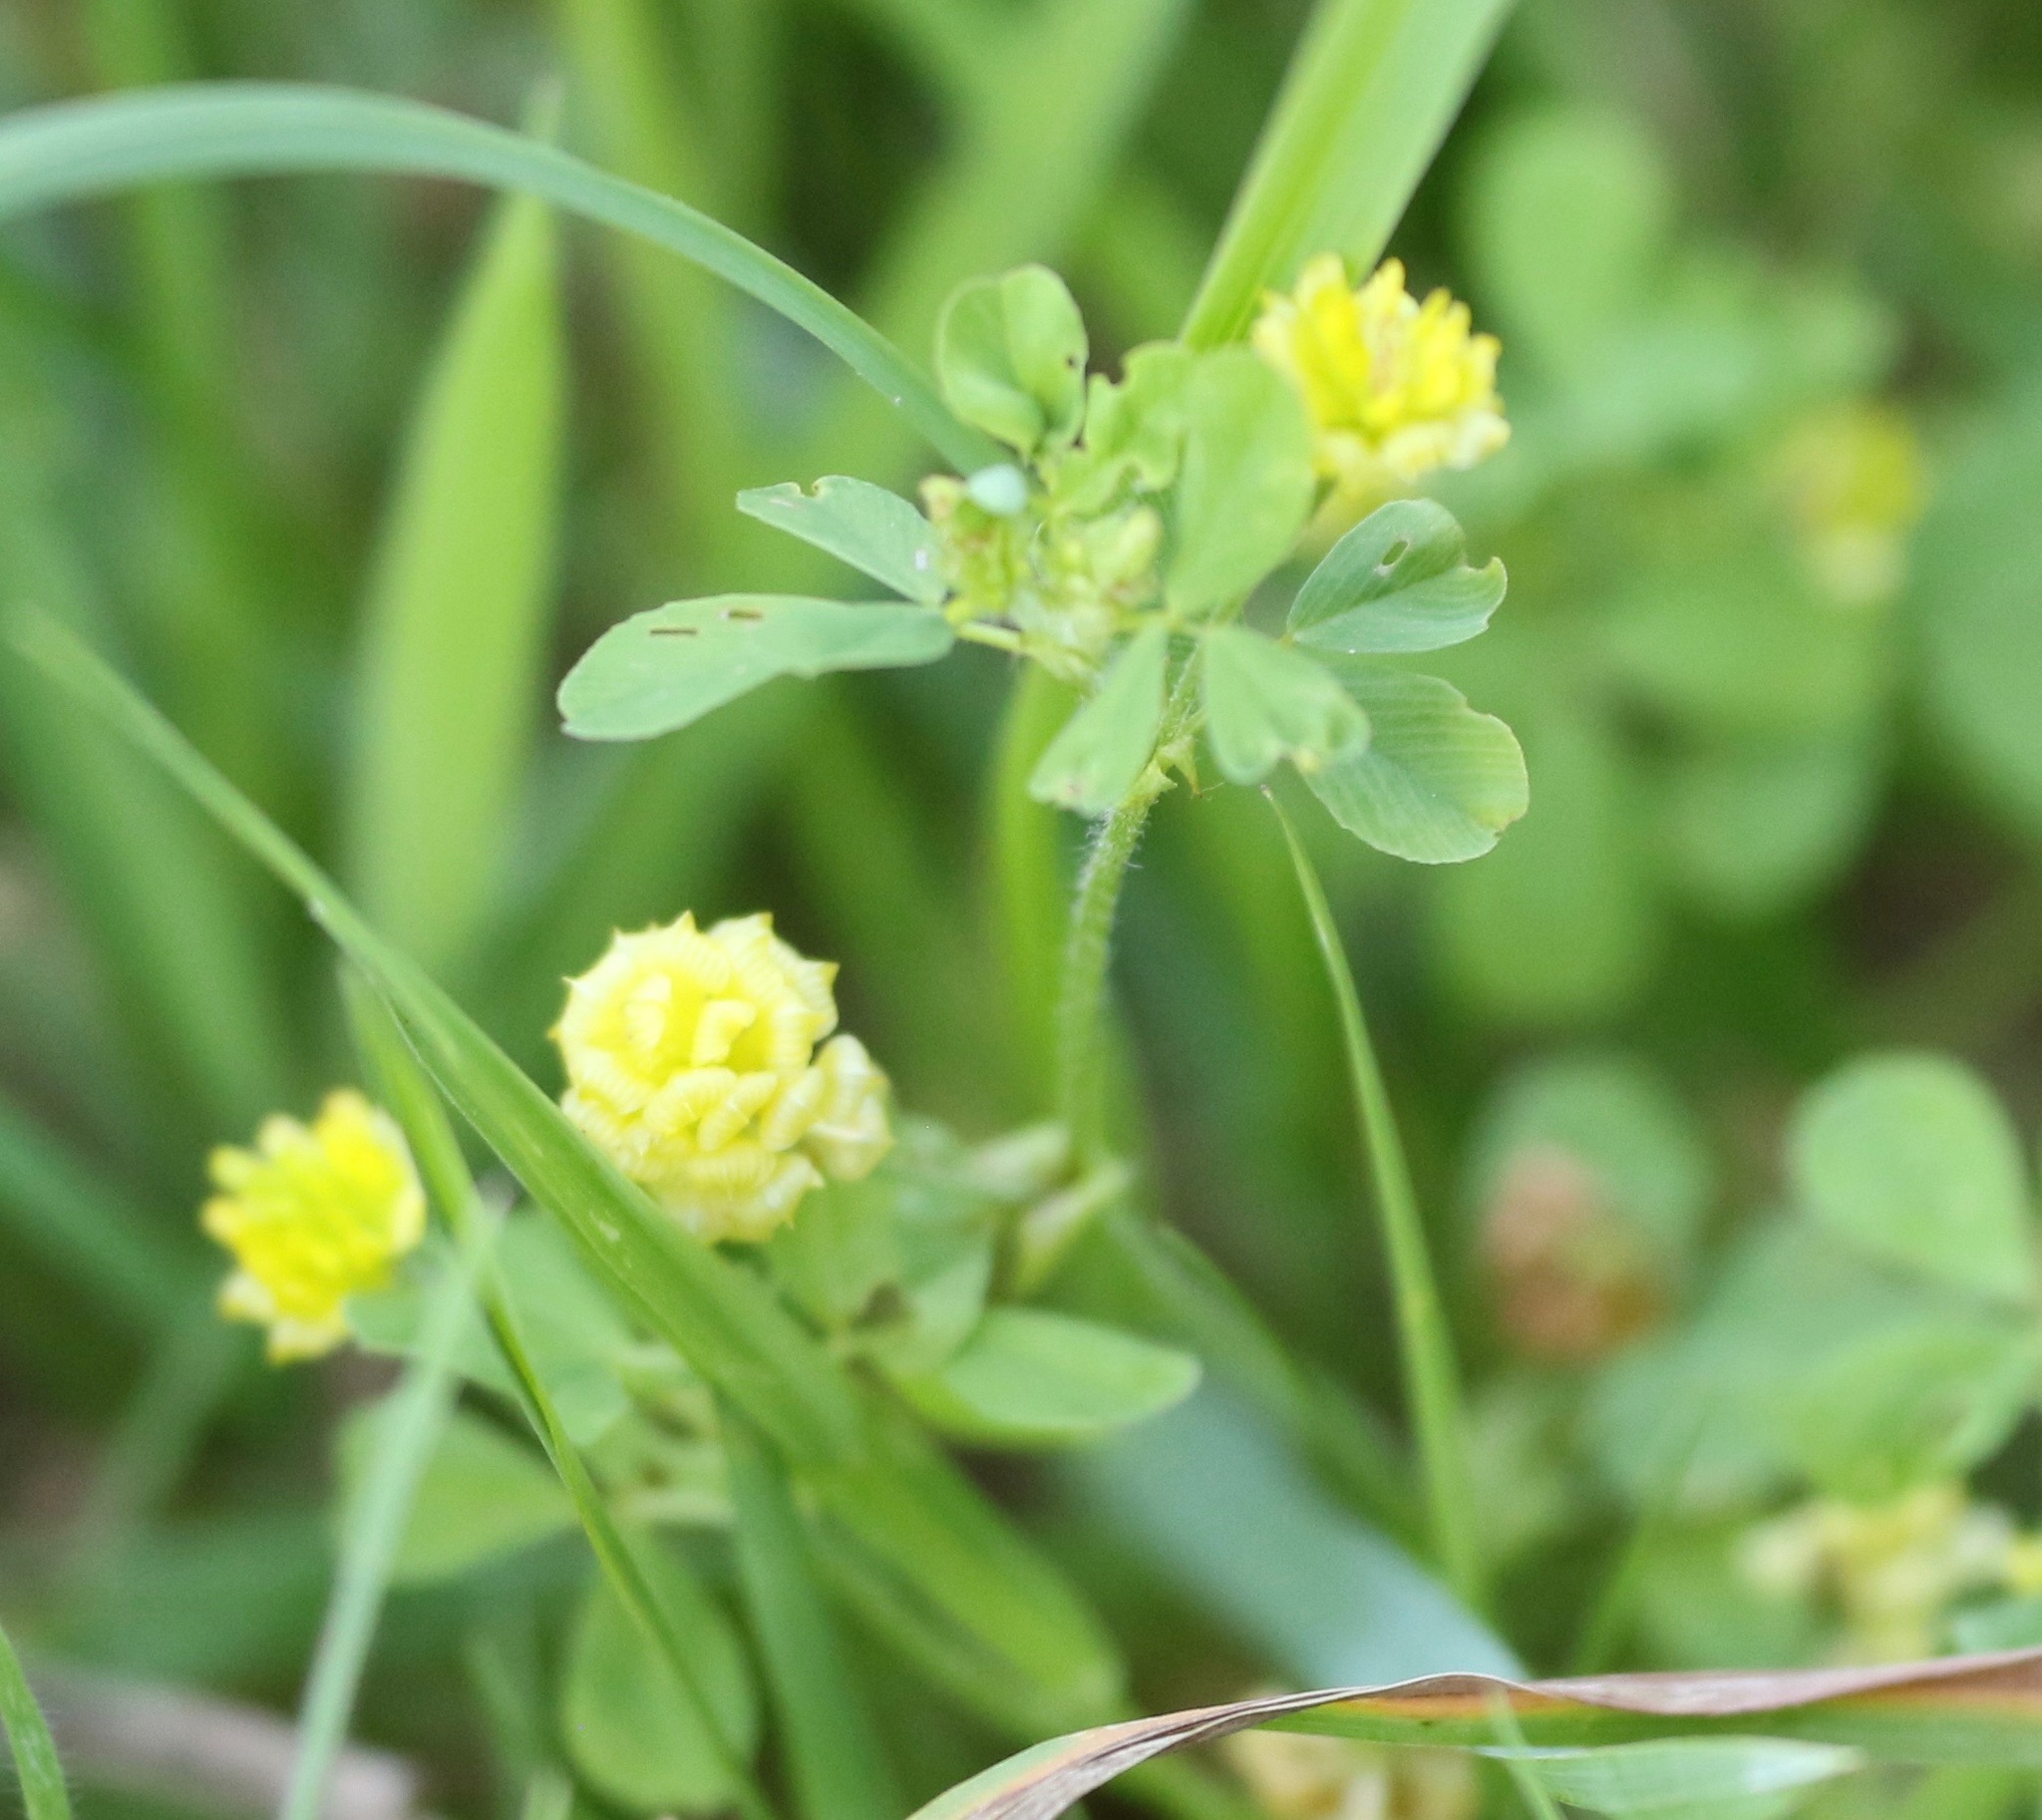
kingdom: Plantae
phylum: Tracheophyta
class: Magnoliopsida
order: Fabales
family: Fabaceae
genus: Trifolium
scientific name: Trifolium campestre
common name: Field clover
